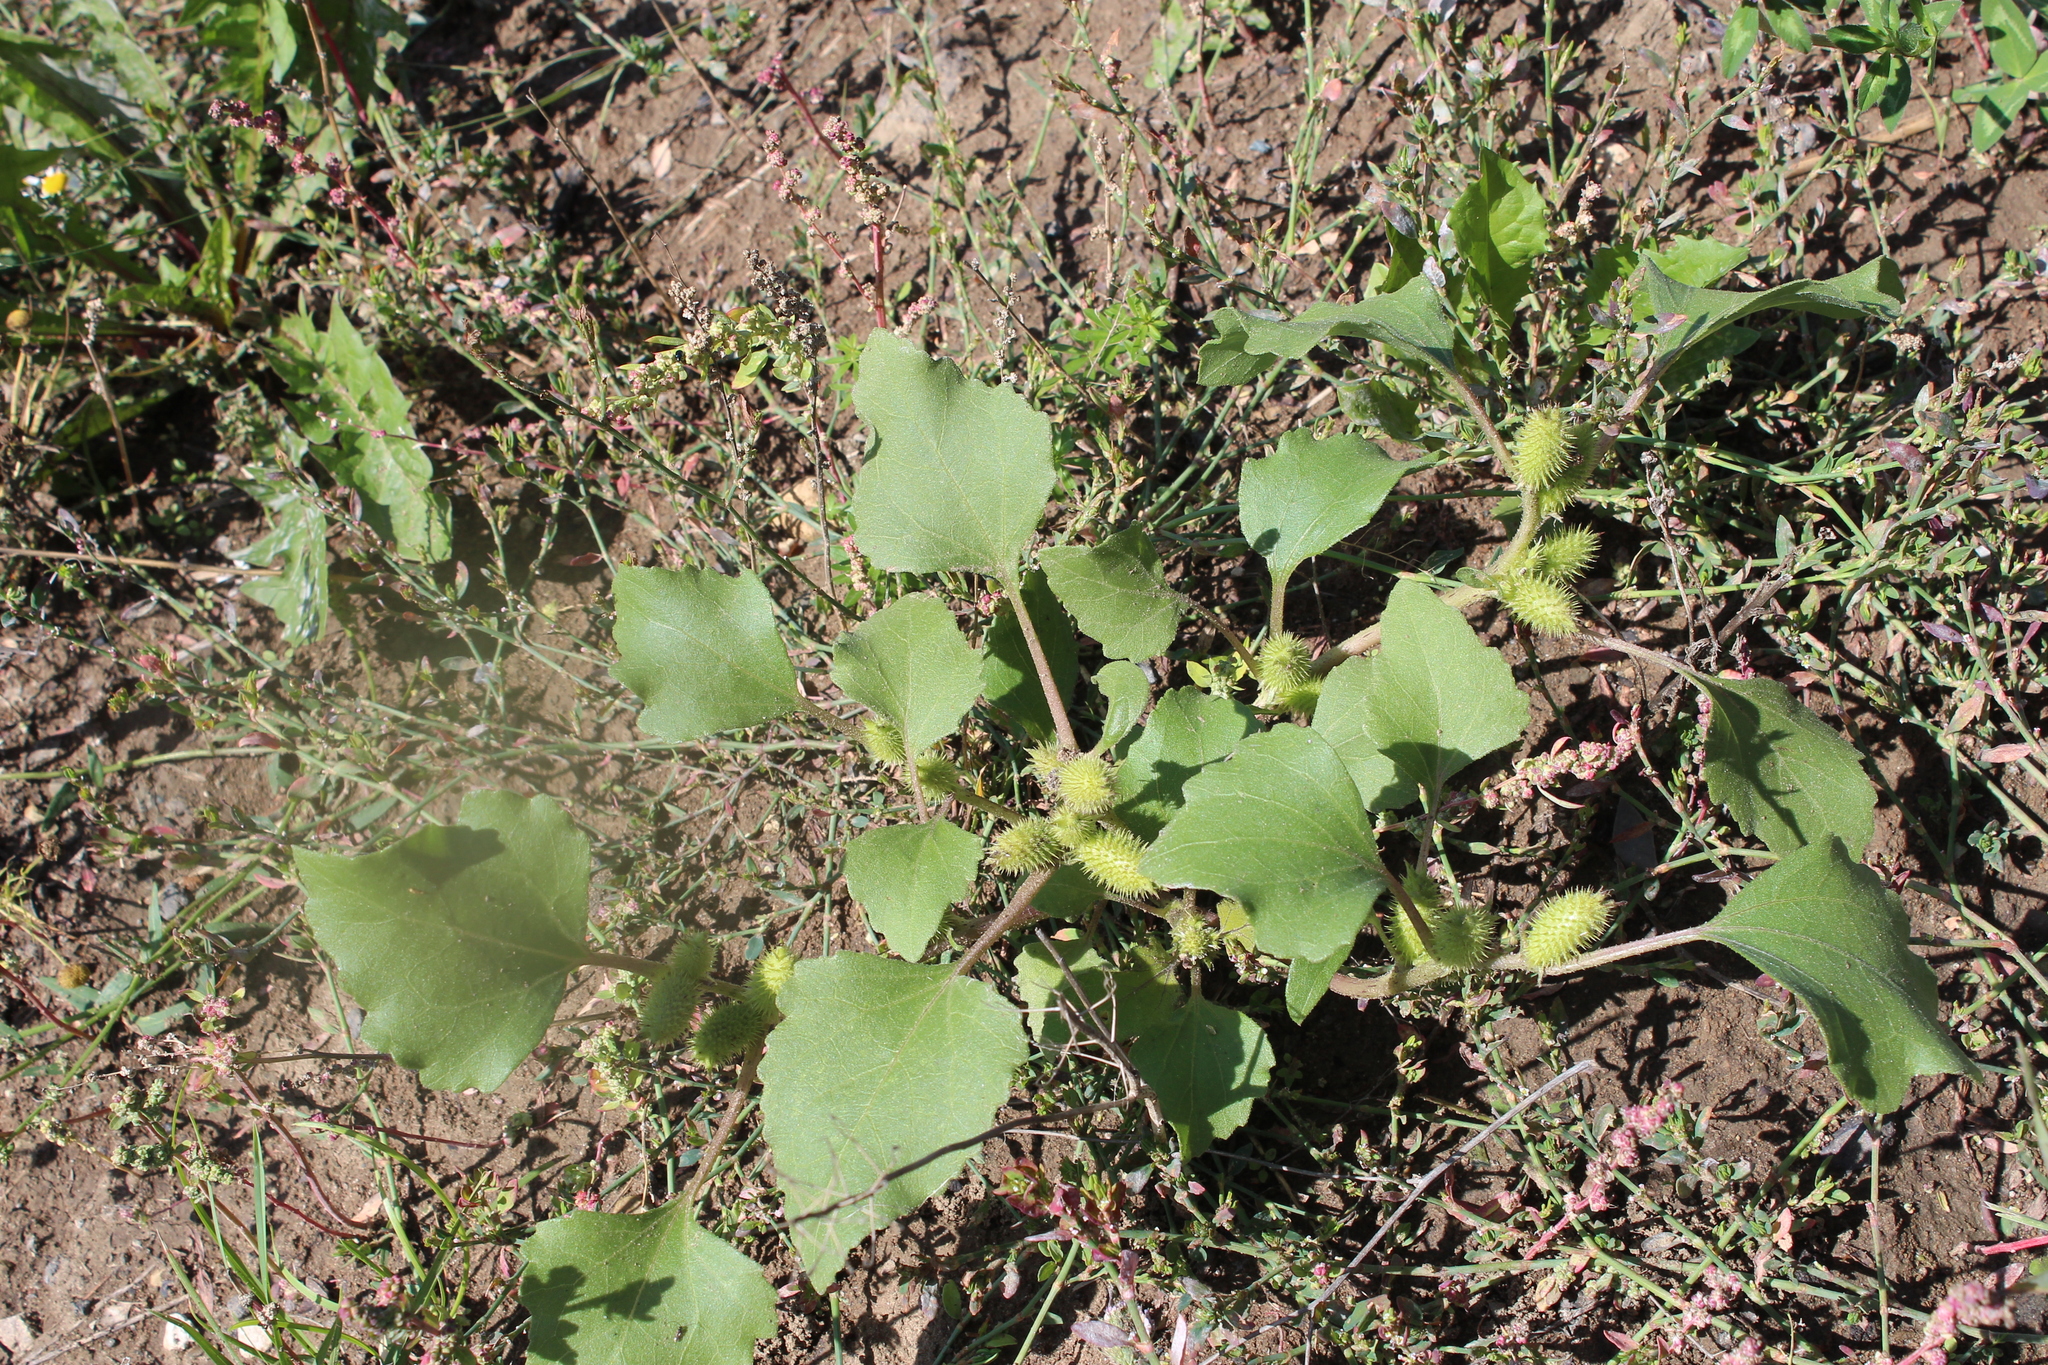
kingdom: Plantae
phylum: Tracheophyta
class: Magnoliopsida
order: Asterales
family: Asteraceae
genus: Xanthium
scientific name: Xanthium orientale
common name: Californian burr
